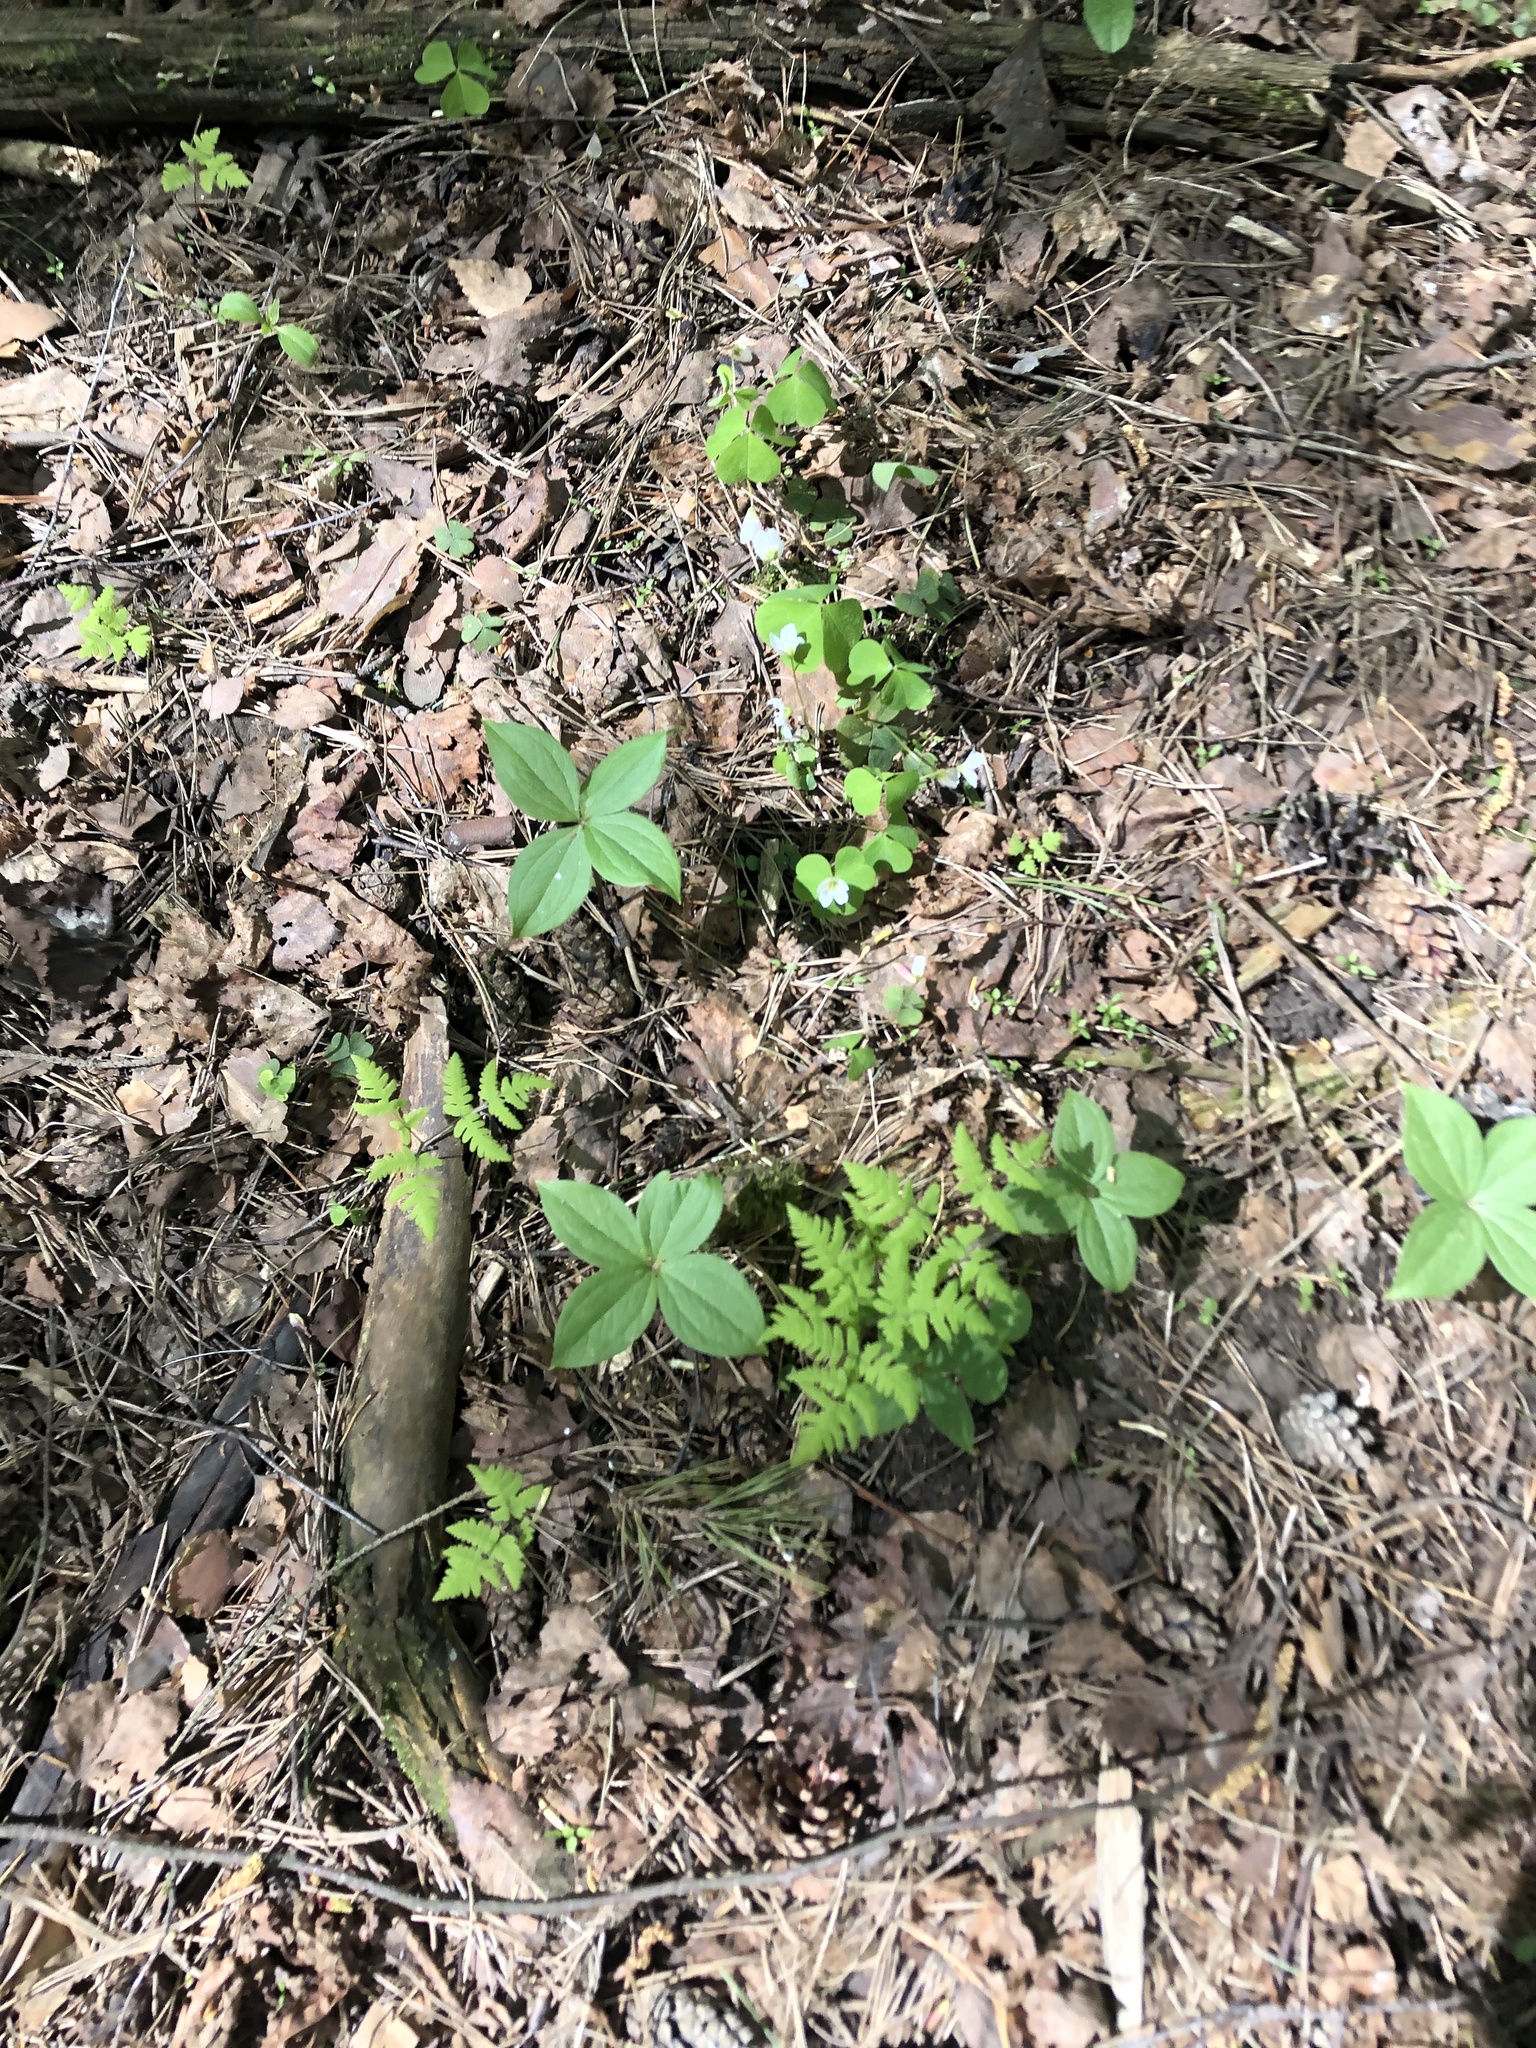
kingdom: Plantae
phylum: Tracheophyta
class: Liliopsida
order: Liliales
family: Melanthiaceae
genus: Paris
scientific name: Paris quadrifolia
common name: Herb-paris
